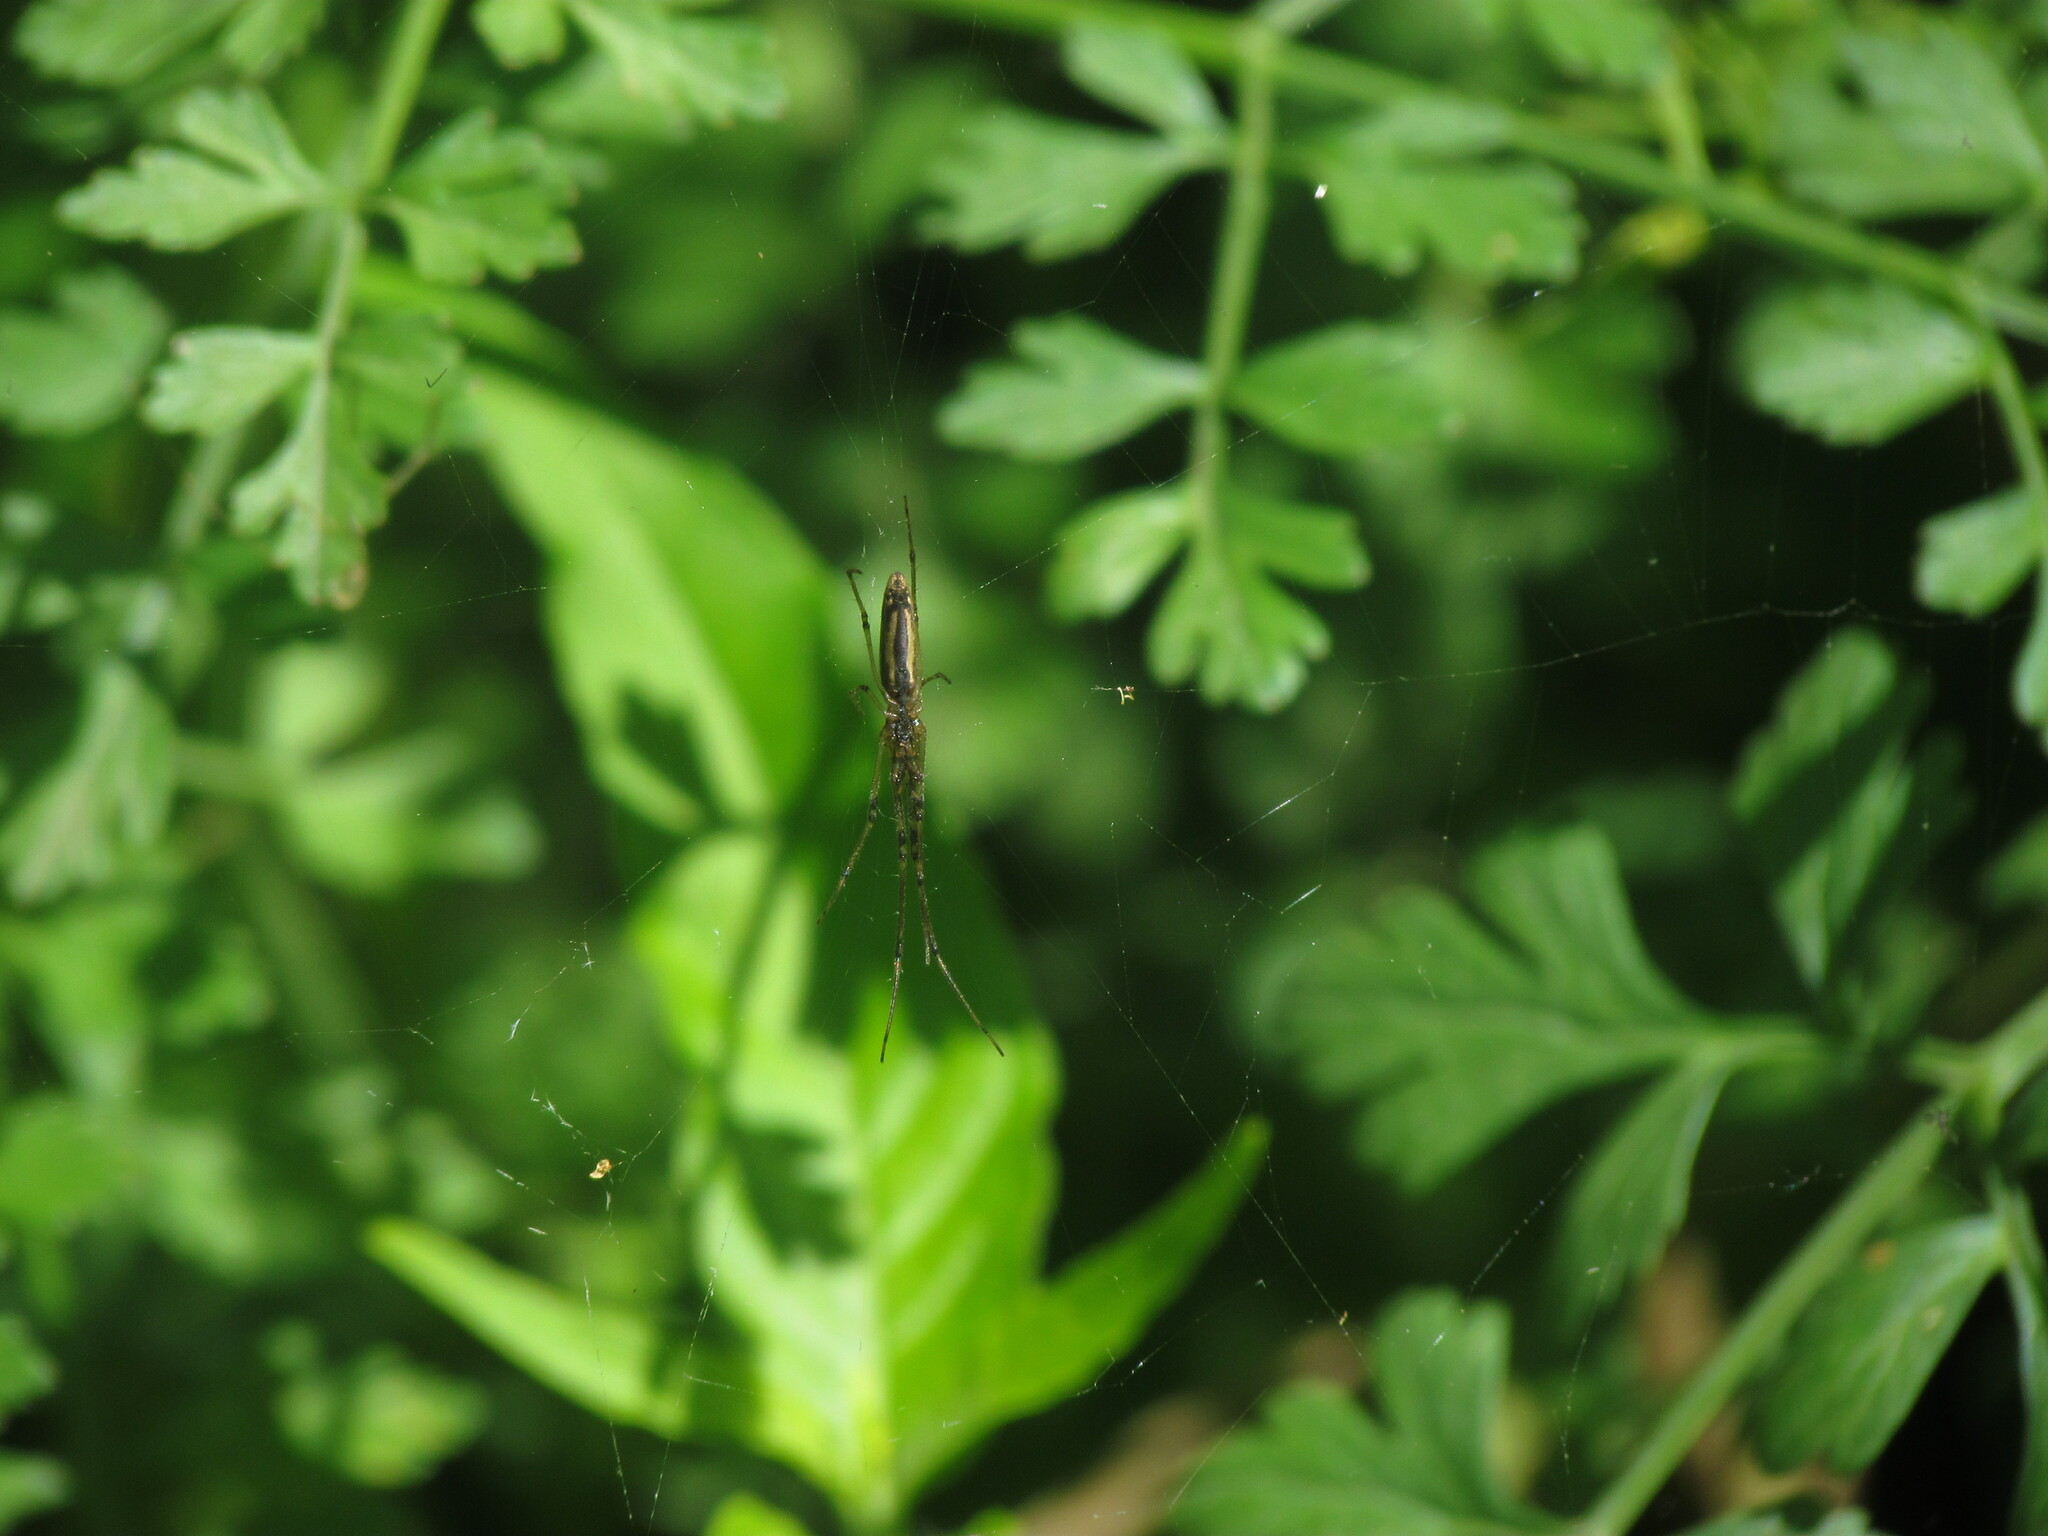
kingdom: Animalia
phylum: Arthropoda
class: Arachnida
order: Araneae
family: Tetragnathidae
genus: Tetragnatha
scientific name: Tetragnatha
